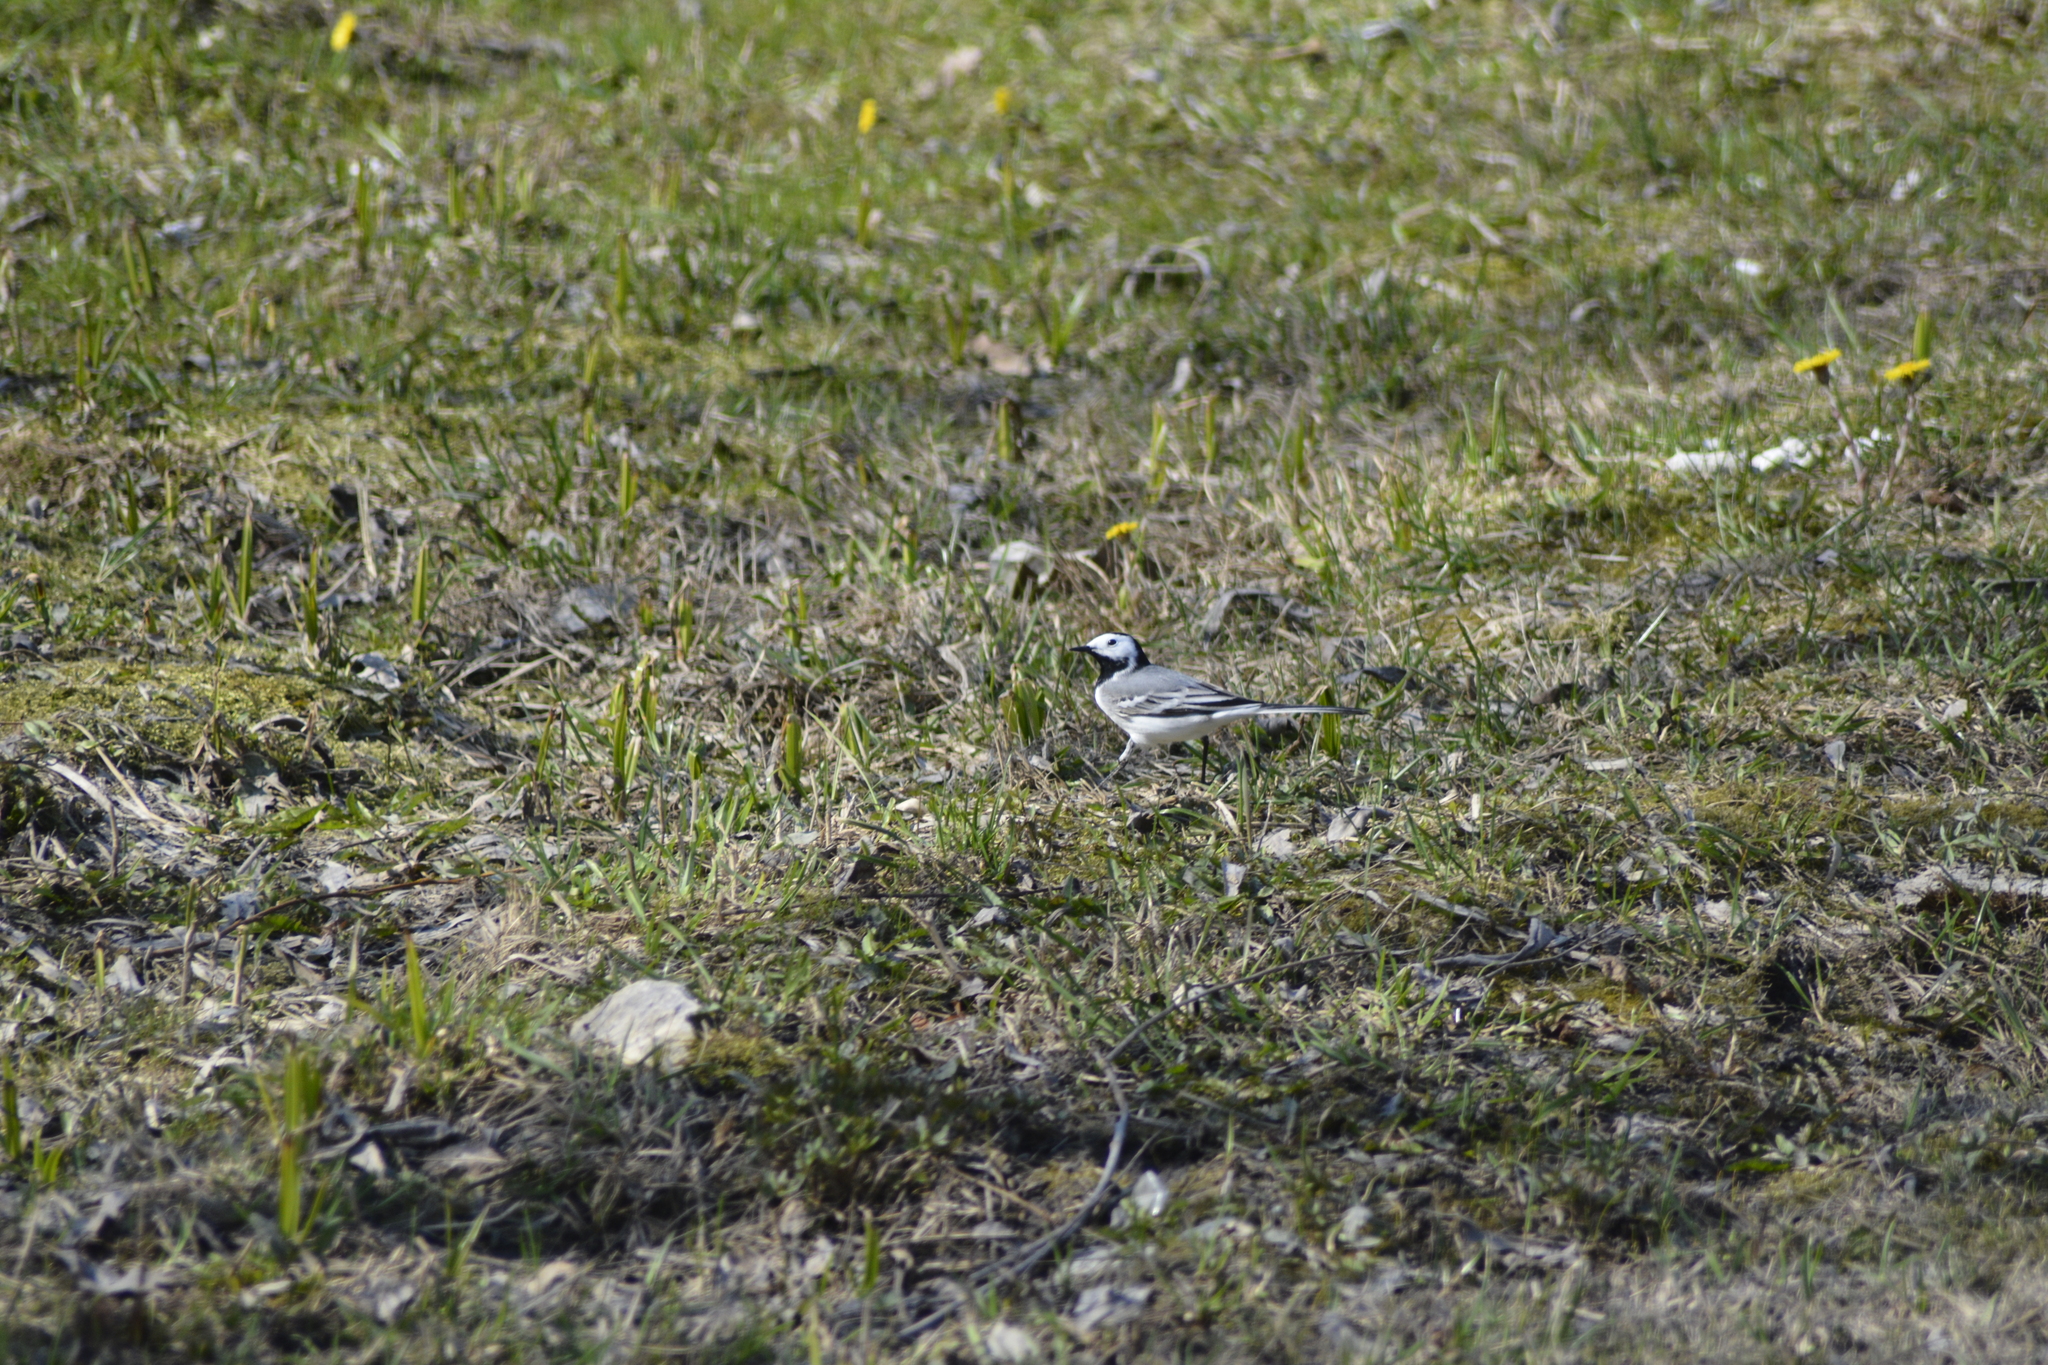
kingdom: Animalia
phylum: Chordata
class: Aves
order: Passeriformes
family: Motacillidae
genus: Motacilla
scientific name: Motacilla alba
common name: White wagtail
